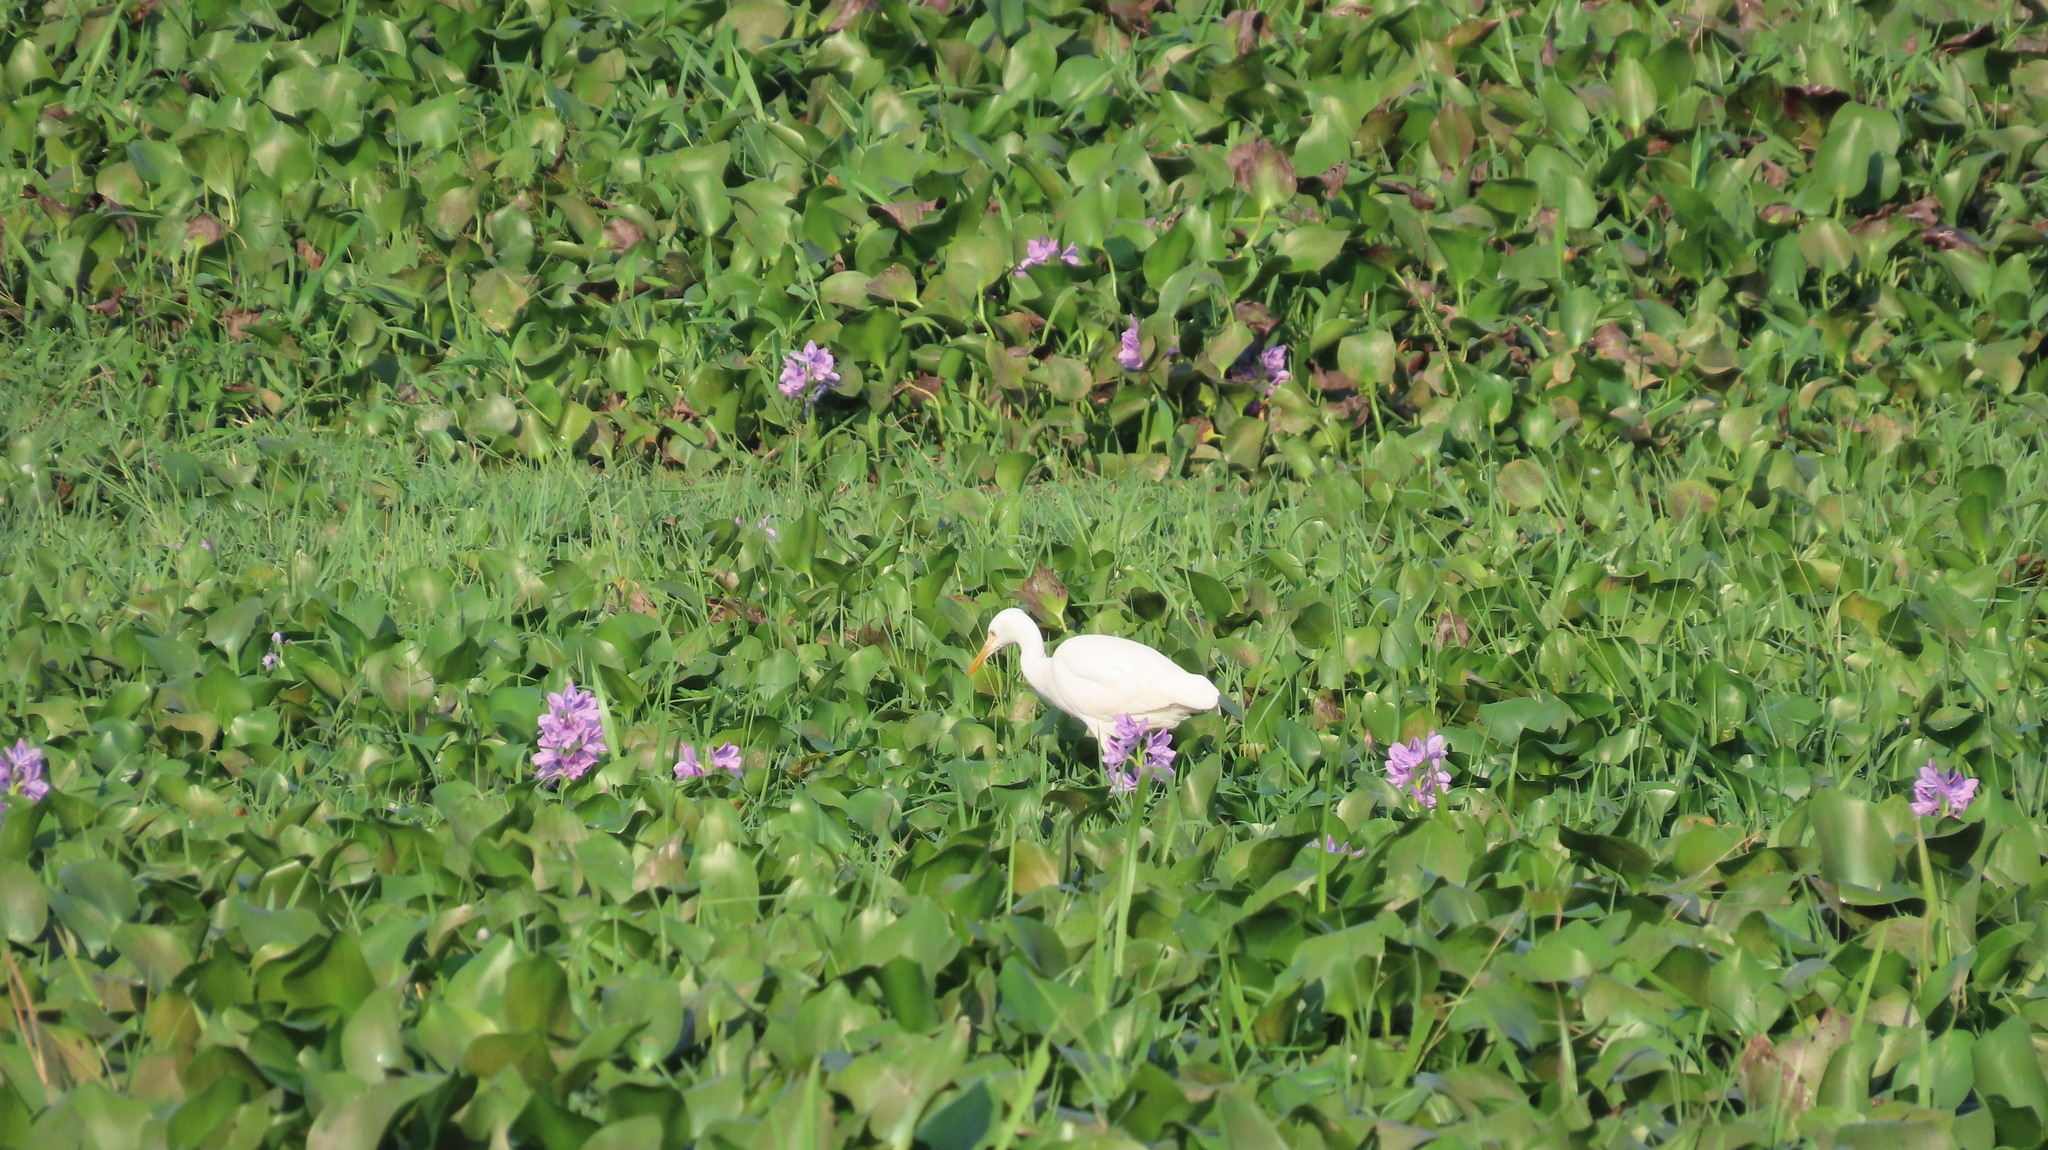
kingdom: Animalia
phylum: Chordata
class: Aves
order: Pelecaniformes
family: Ardeidae
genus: Bubulcus
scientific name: Bubulcus coromandus
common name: Eastern cattle egret
